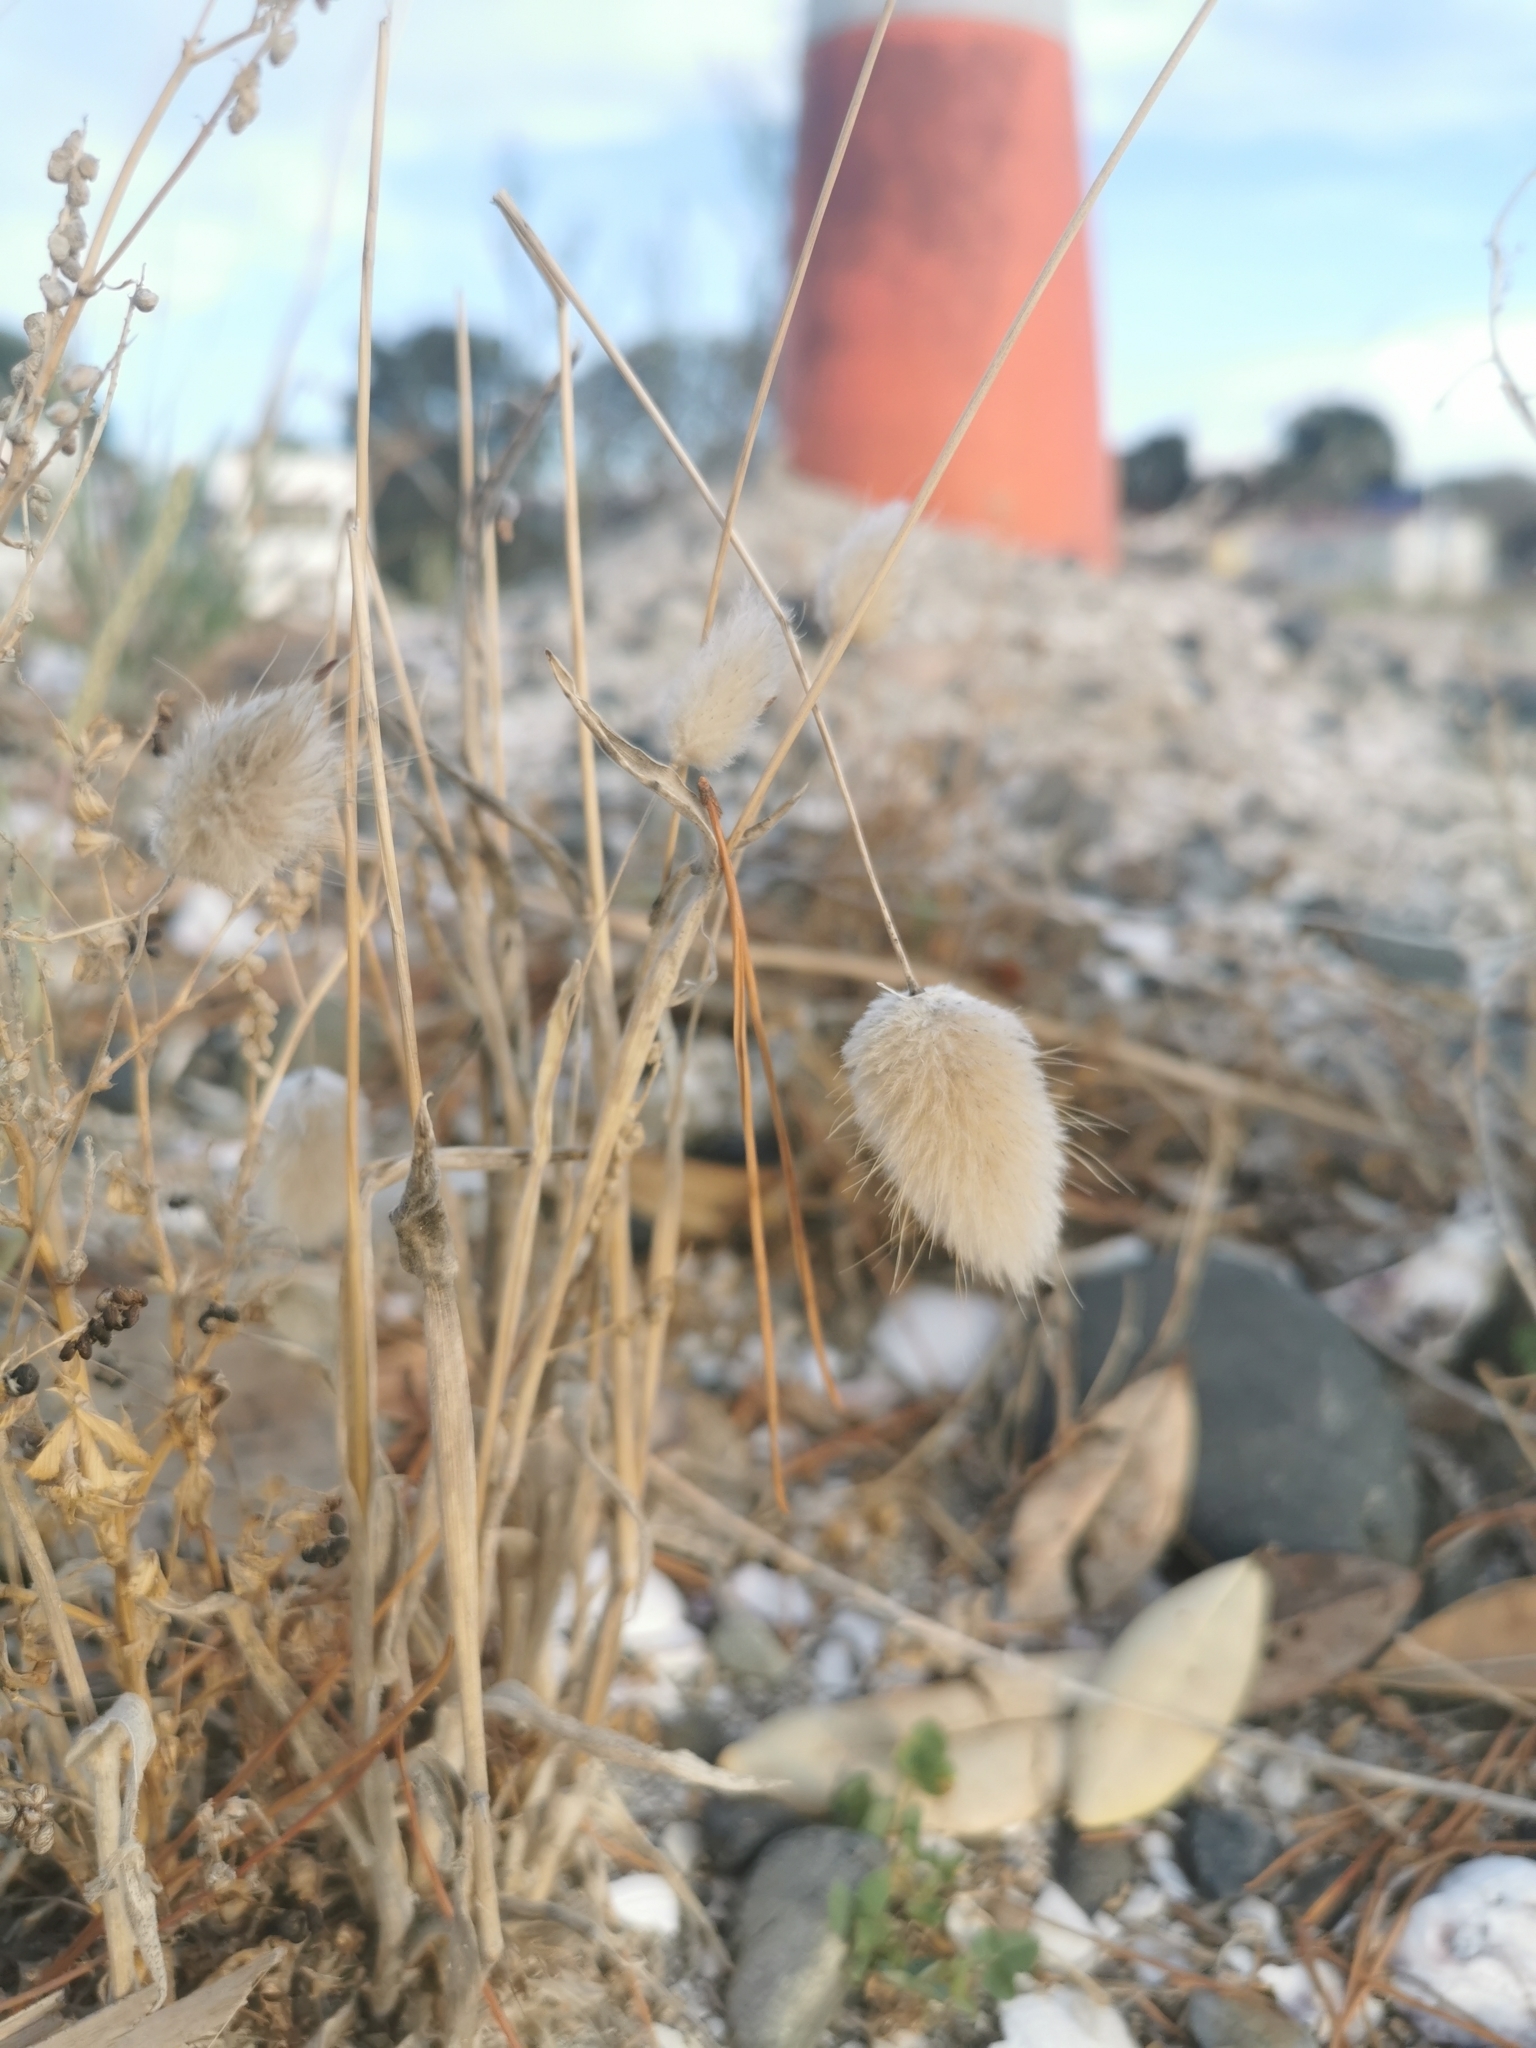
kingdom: Plantae
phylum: Tracheophyta
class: Liliopsida
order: Poales
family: Poaceae
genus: Lagurus
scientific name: Lagurus ovatus
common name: Hare's-tail
